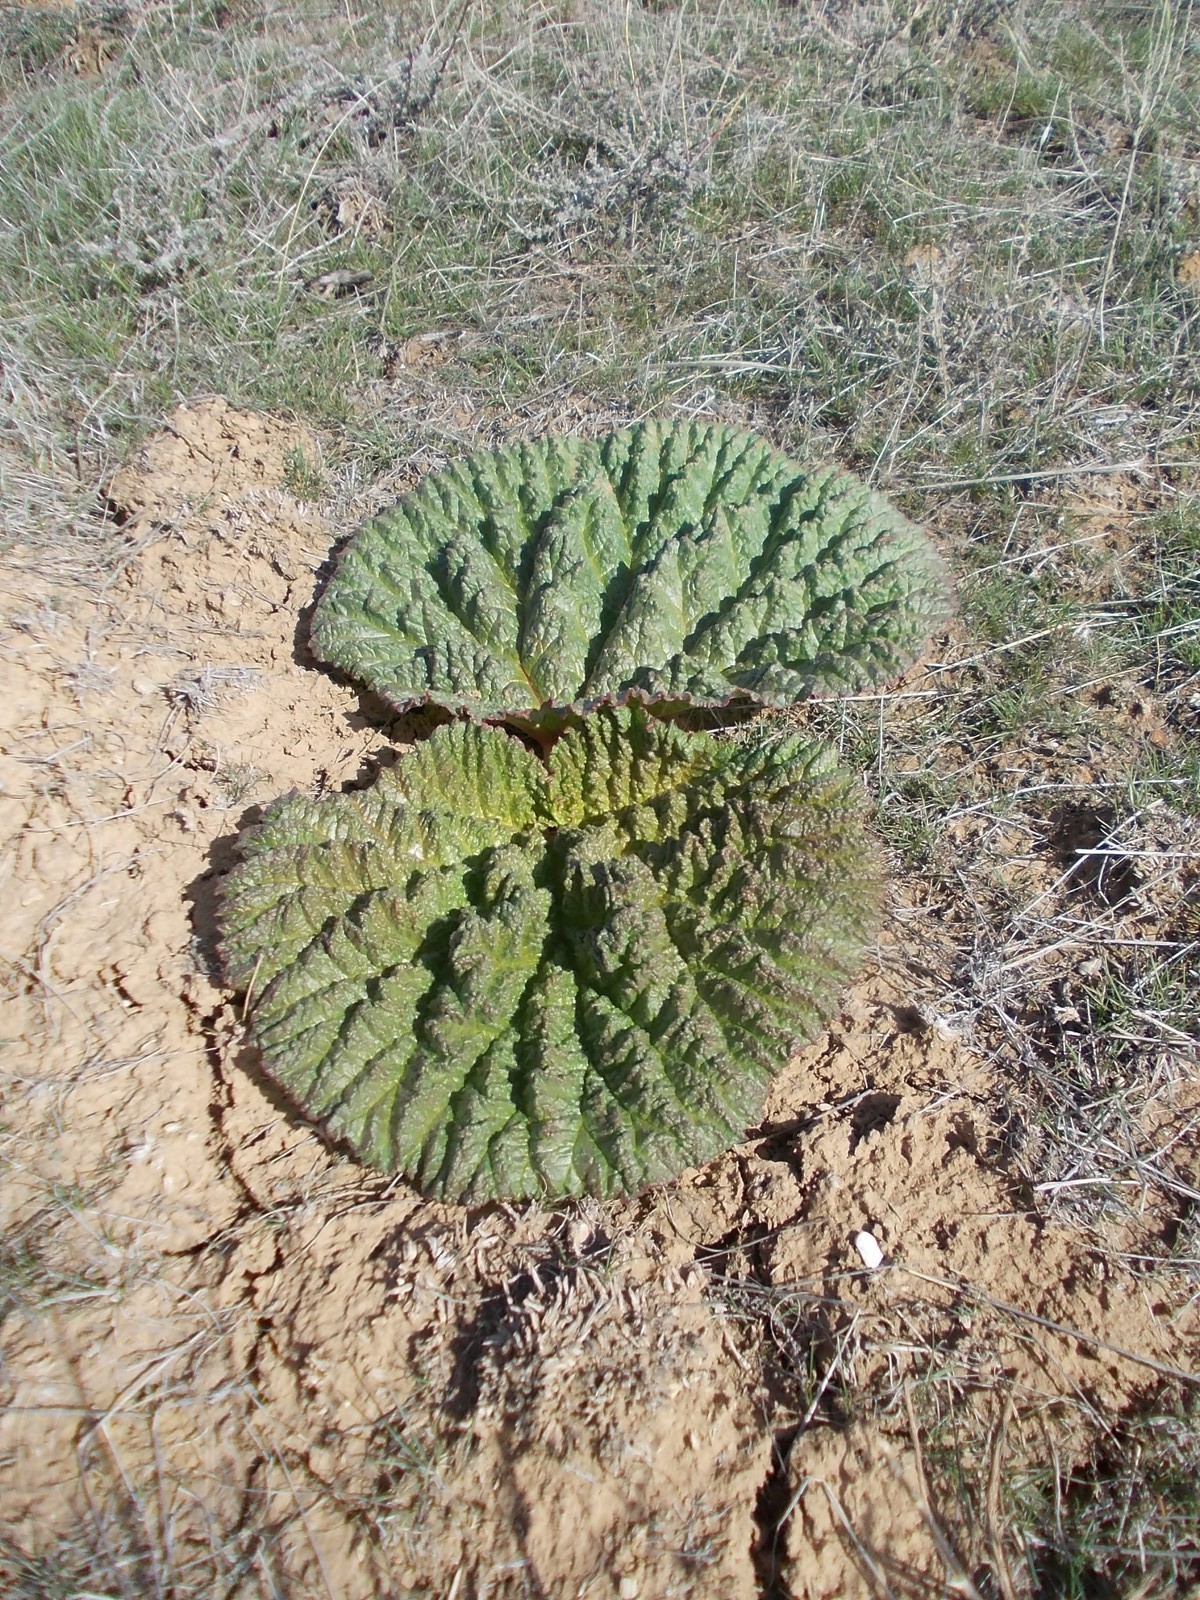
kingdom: Plantae
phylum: Tracheophyta
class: Magnoliopsida
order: Caryophyllales
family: Polygonaceae
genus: Rheum
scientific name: Rheum tataricum
